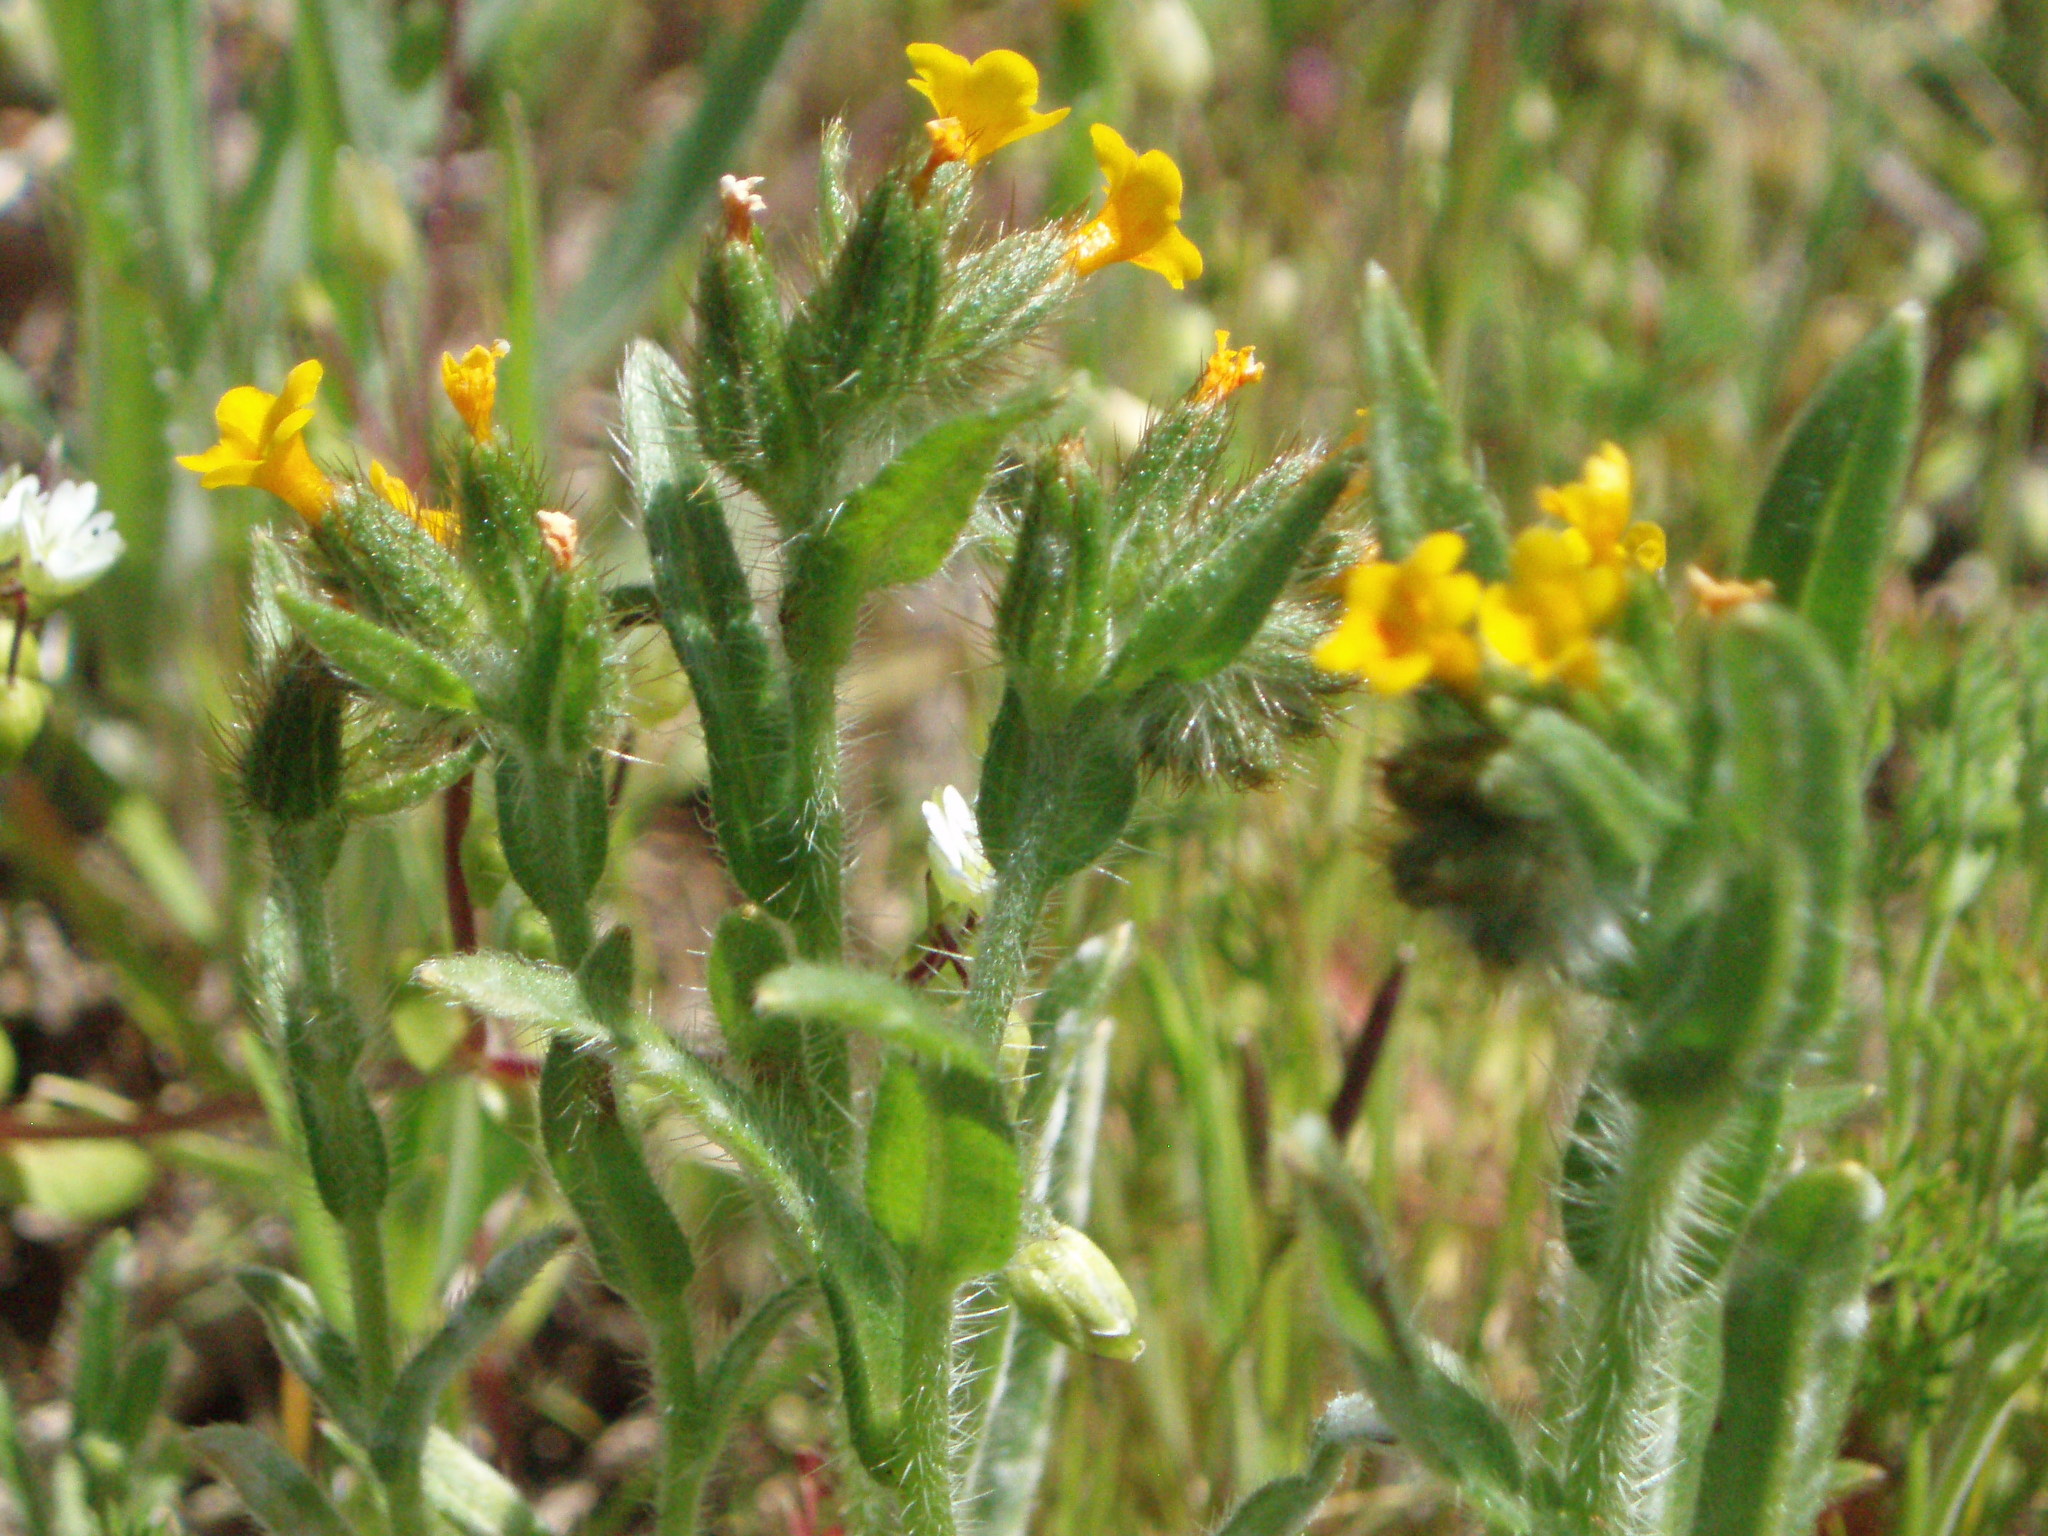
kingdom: Plantae
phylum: Tracheophyta
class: Magnoliopsida
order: Boraginales
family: Boraginaceae
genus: Amsinckia
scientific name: Amsinckia menziesii
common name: Menzies' fiddleneck
